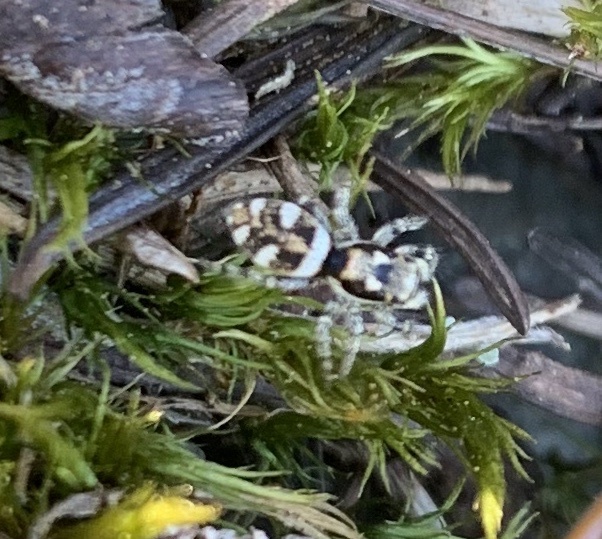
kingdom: Animalia
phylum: Arthropoda
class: Arachnida
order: Araneae
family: Salticidae
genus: Salticus
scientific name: Salticus scenicus
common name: Zebra jumper
